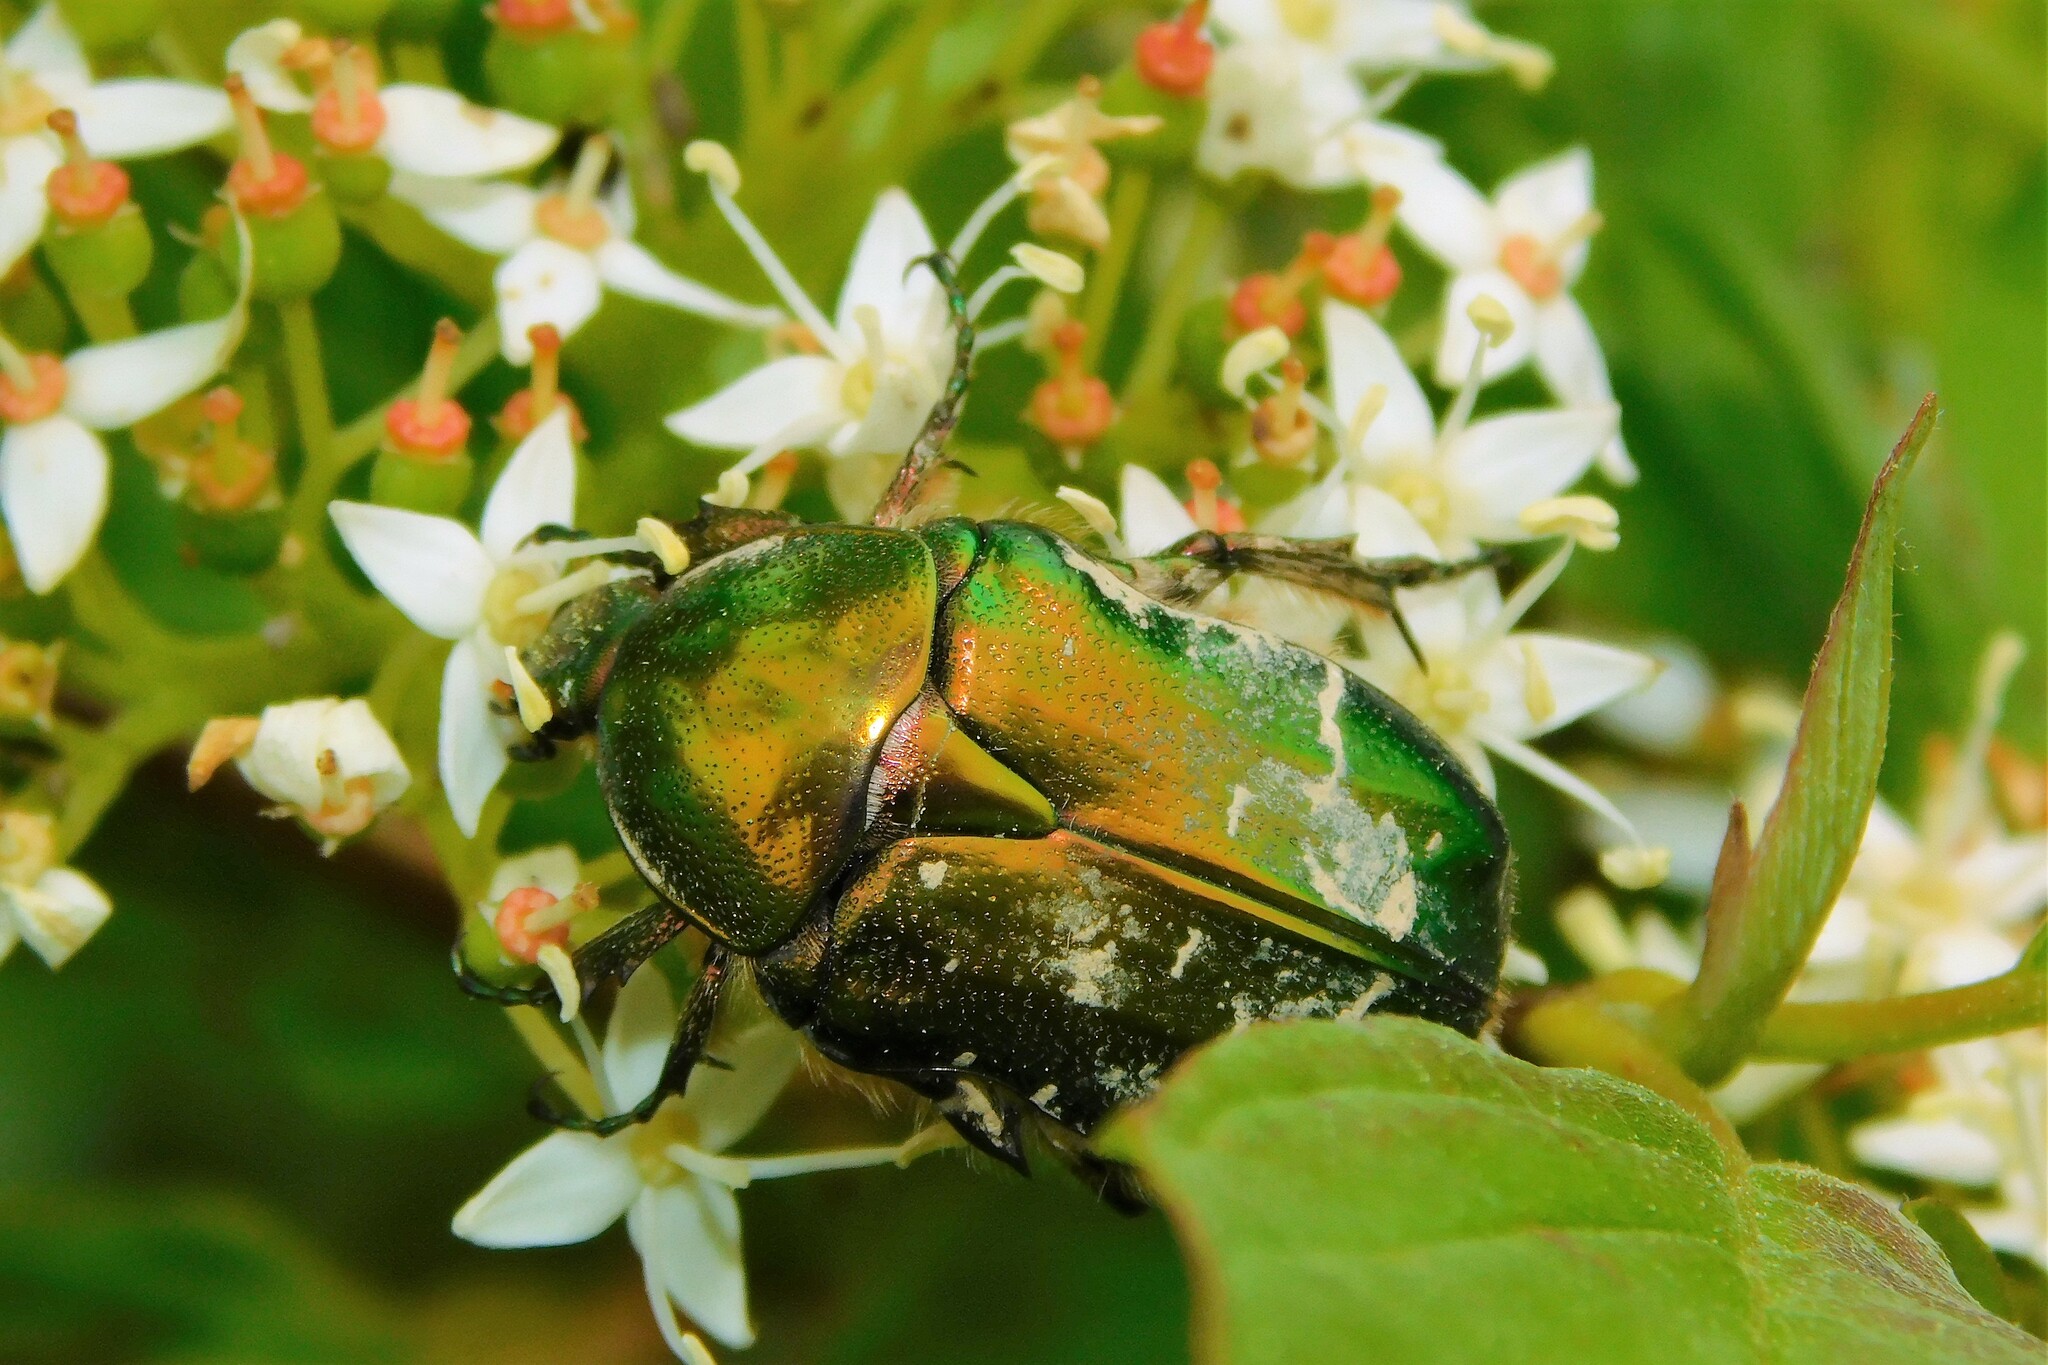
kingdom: Animalia
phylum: Arthropoda
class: Insecta
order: Coleoptera
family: Scarabaeidae
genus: Cetonia
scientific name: Cetonia aurata
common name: Rose chafer
